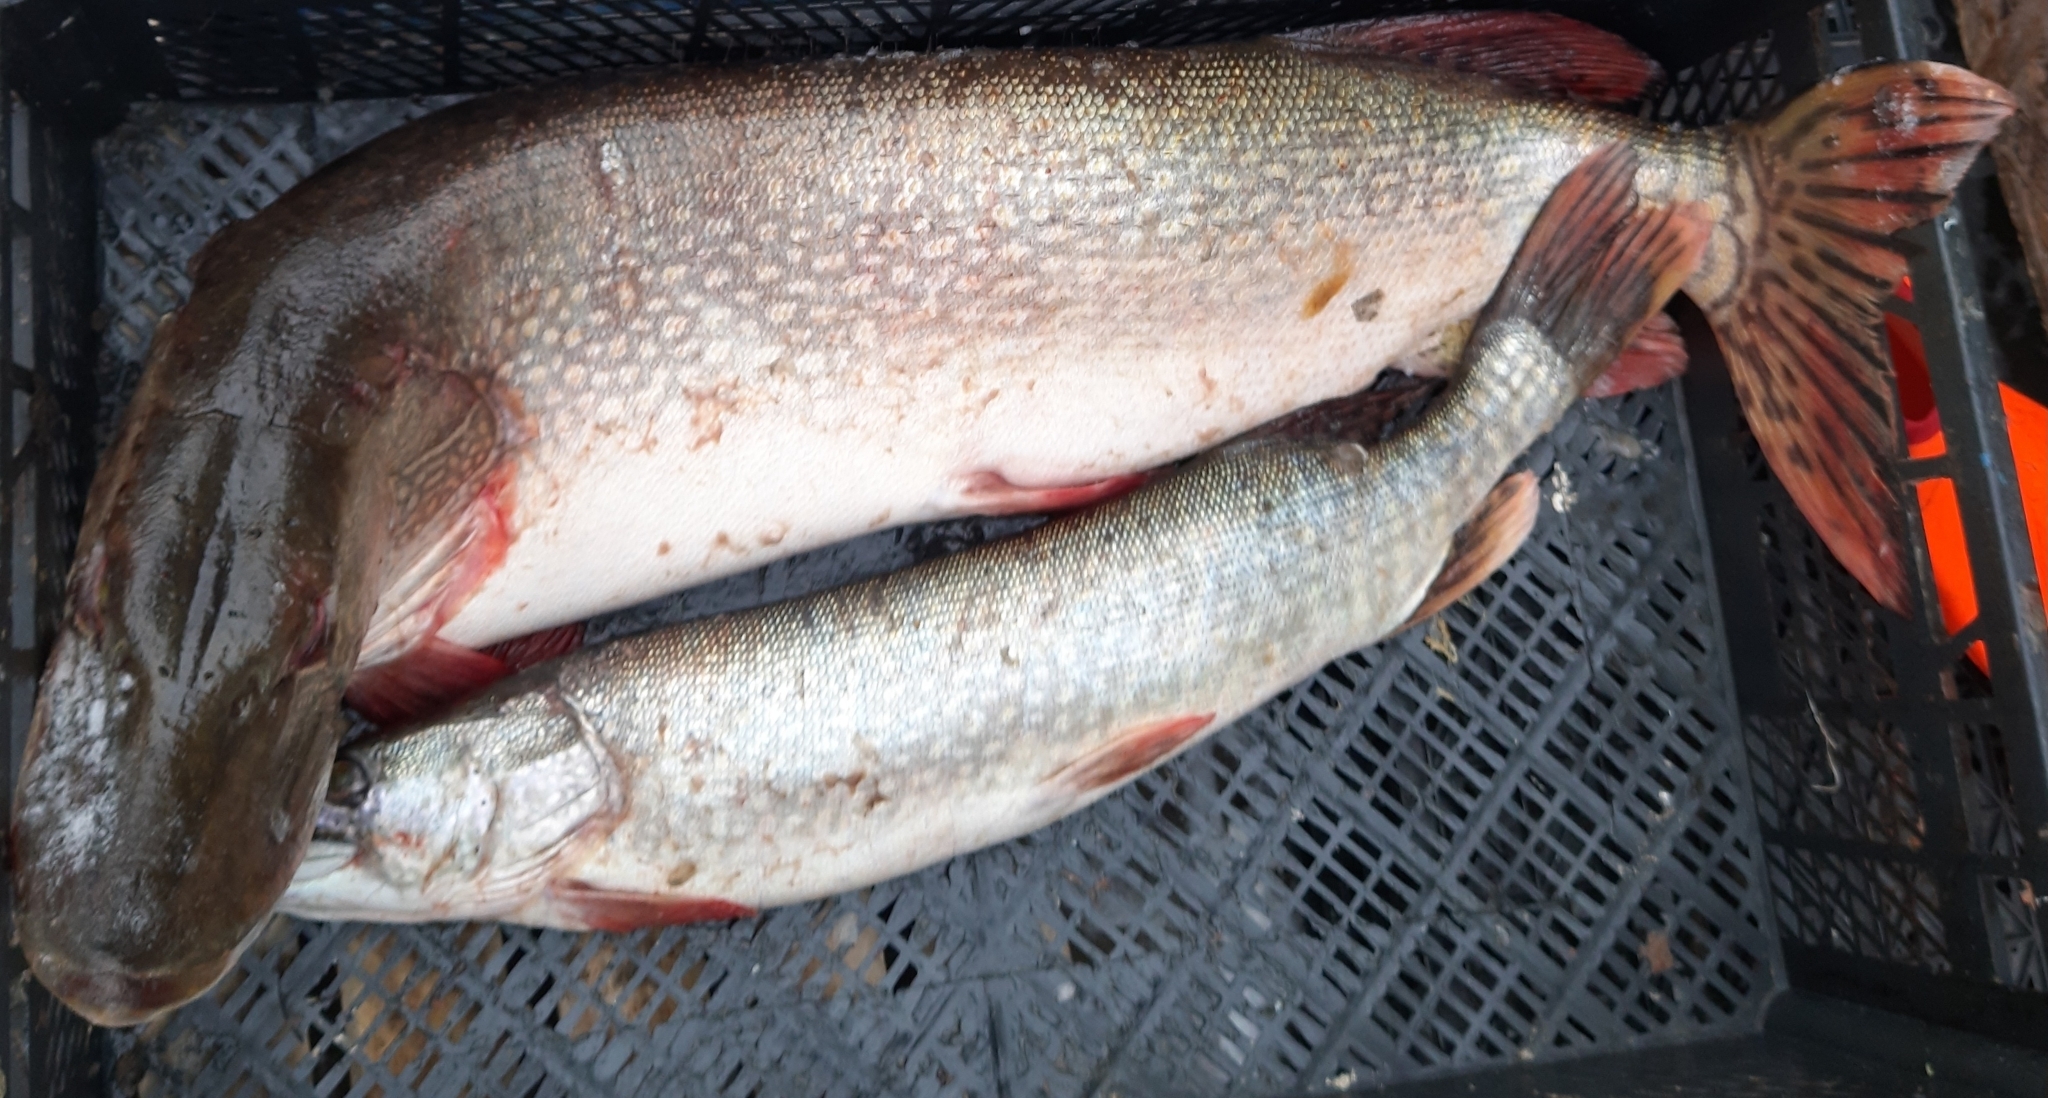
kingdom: Animalia
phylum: Chordata
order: Esociformes
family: Esocidae
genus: Esox
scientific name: Esox lucius
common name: Northern pike
